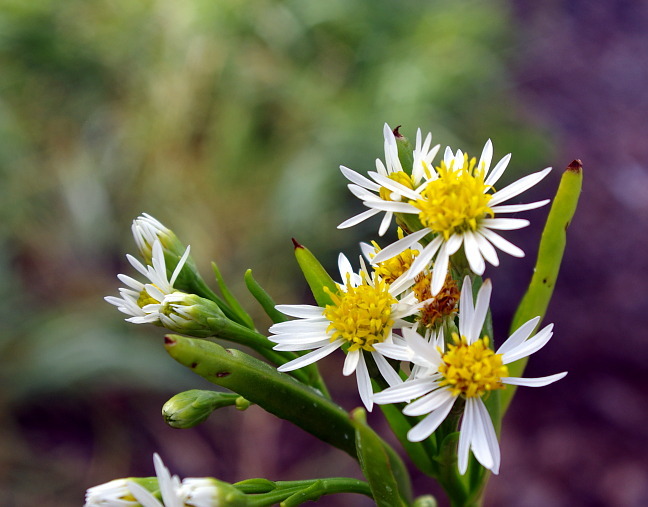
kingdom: Plantae
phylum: Tracheophyta
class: Magnoliopsida
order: Asterales
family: Asteraceae
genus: Tripolium
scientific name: Tripolium pannonicum
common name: Sea aster
